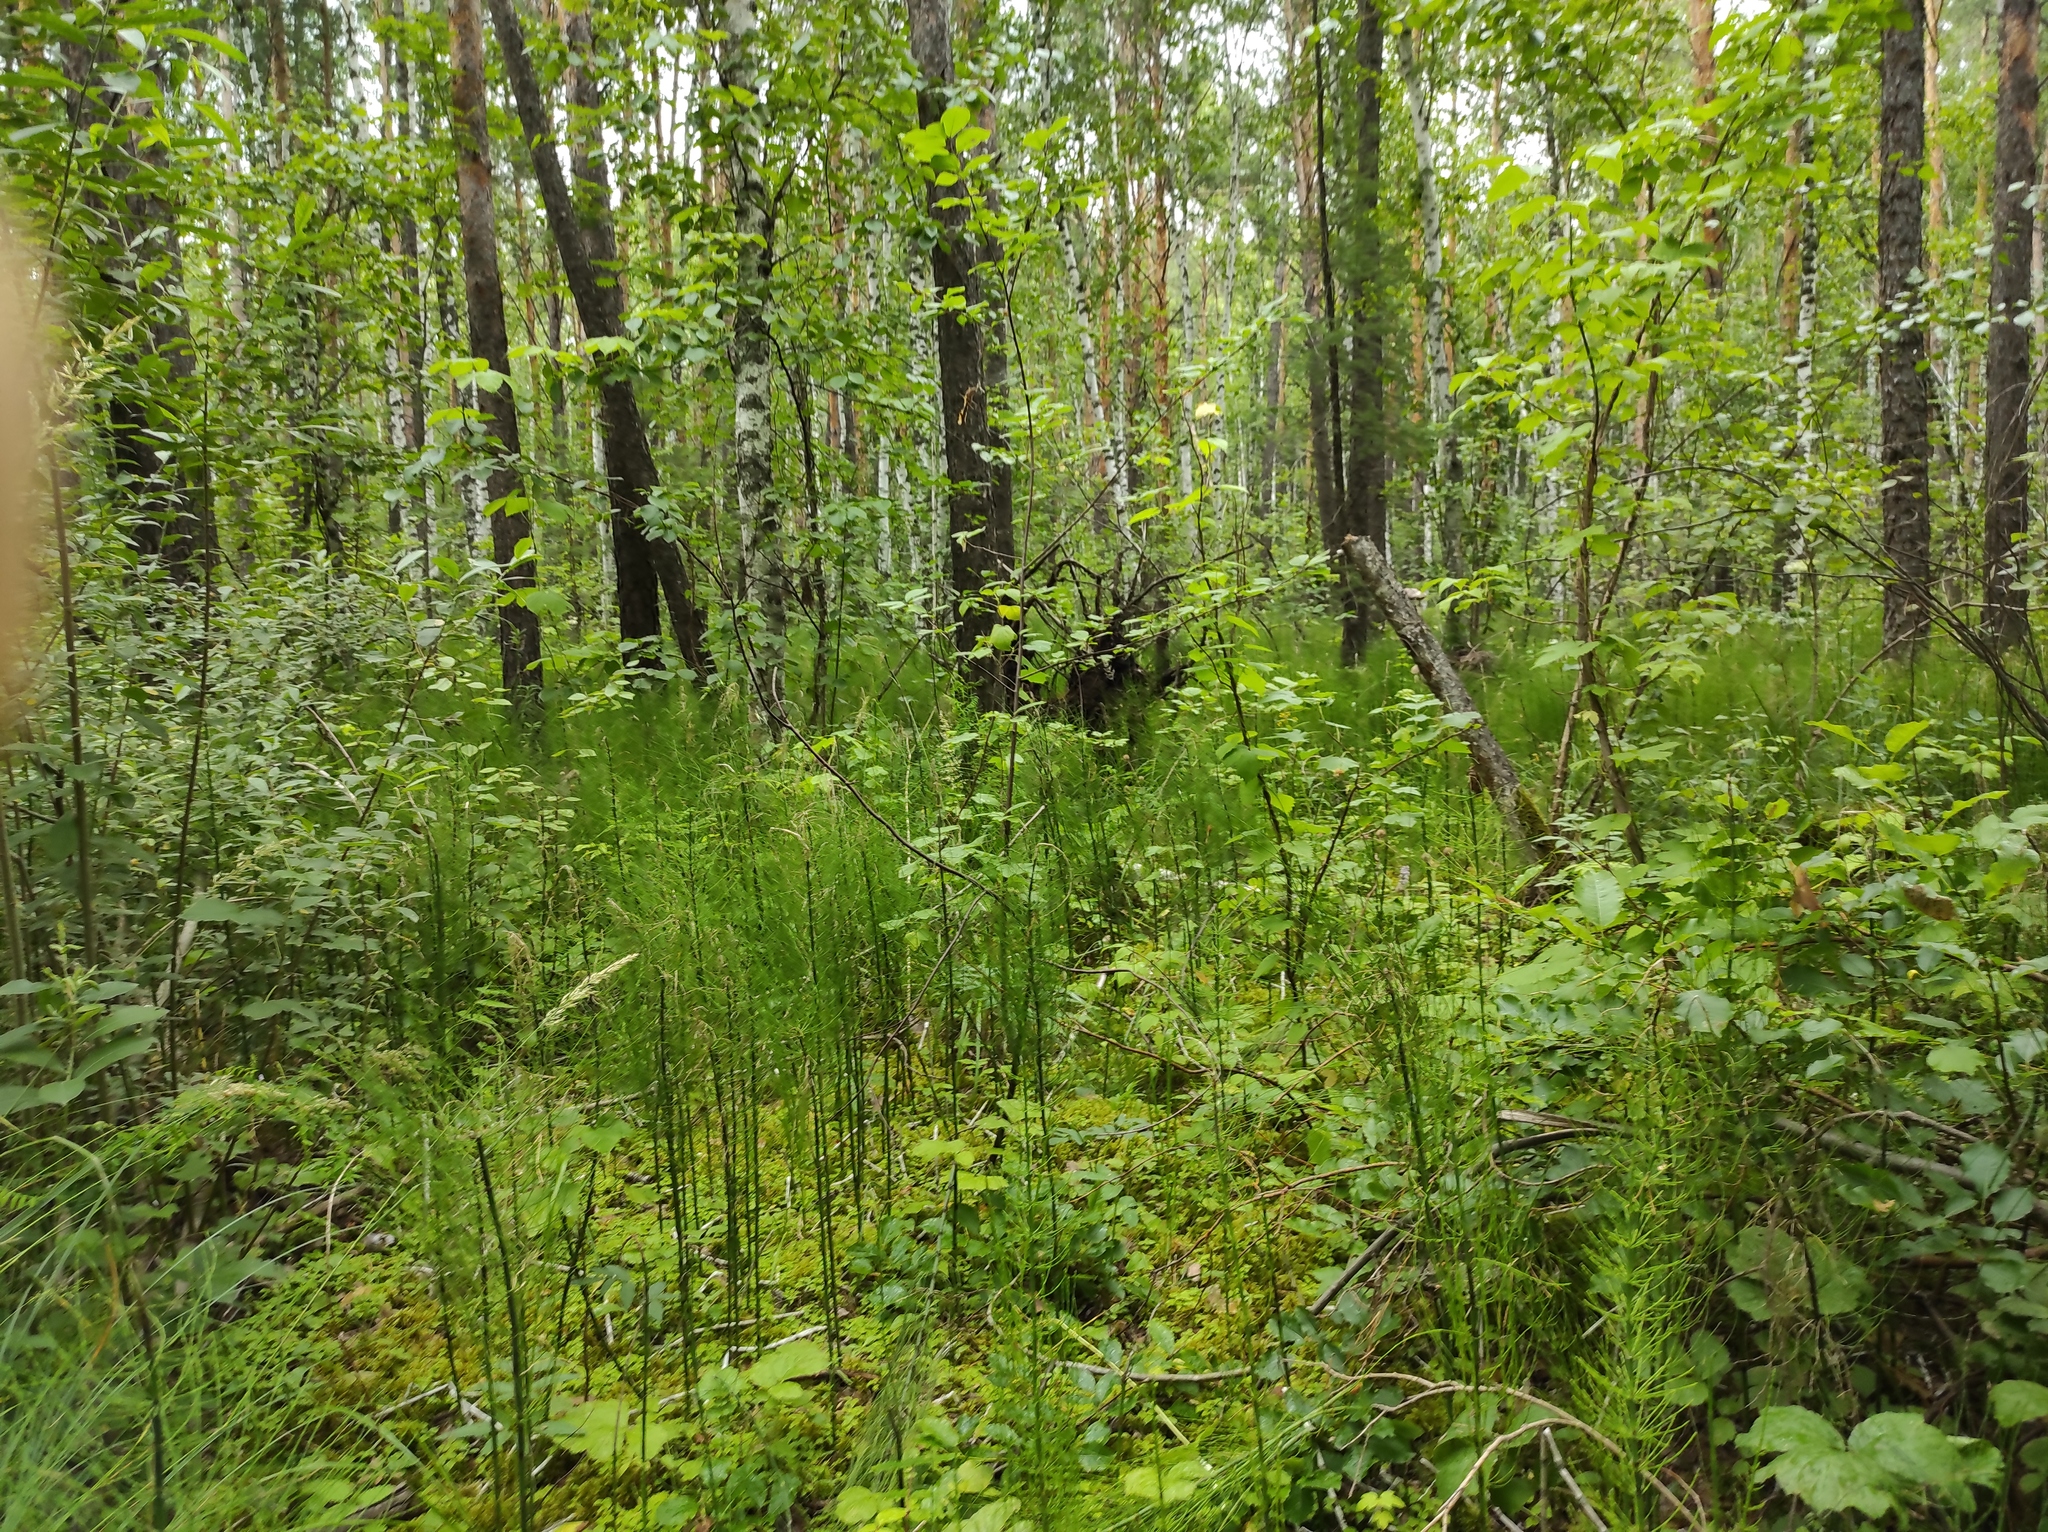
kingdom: Plantae
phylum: Tracheophyta
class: Polypodiopsida
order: Equisetales
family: Equisetaceae
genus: Equisetum
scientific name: Equisetum fluviatile
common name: Water horsetail
